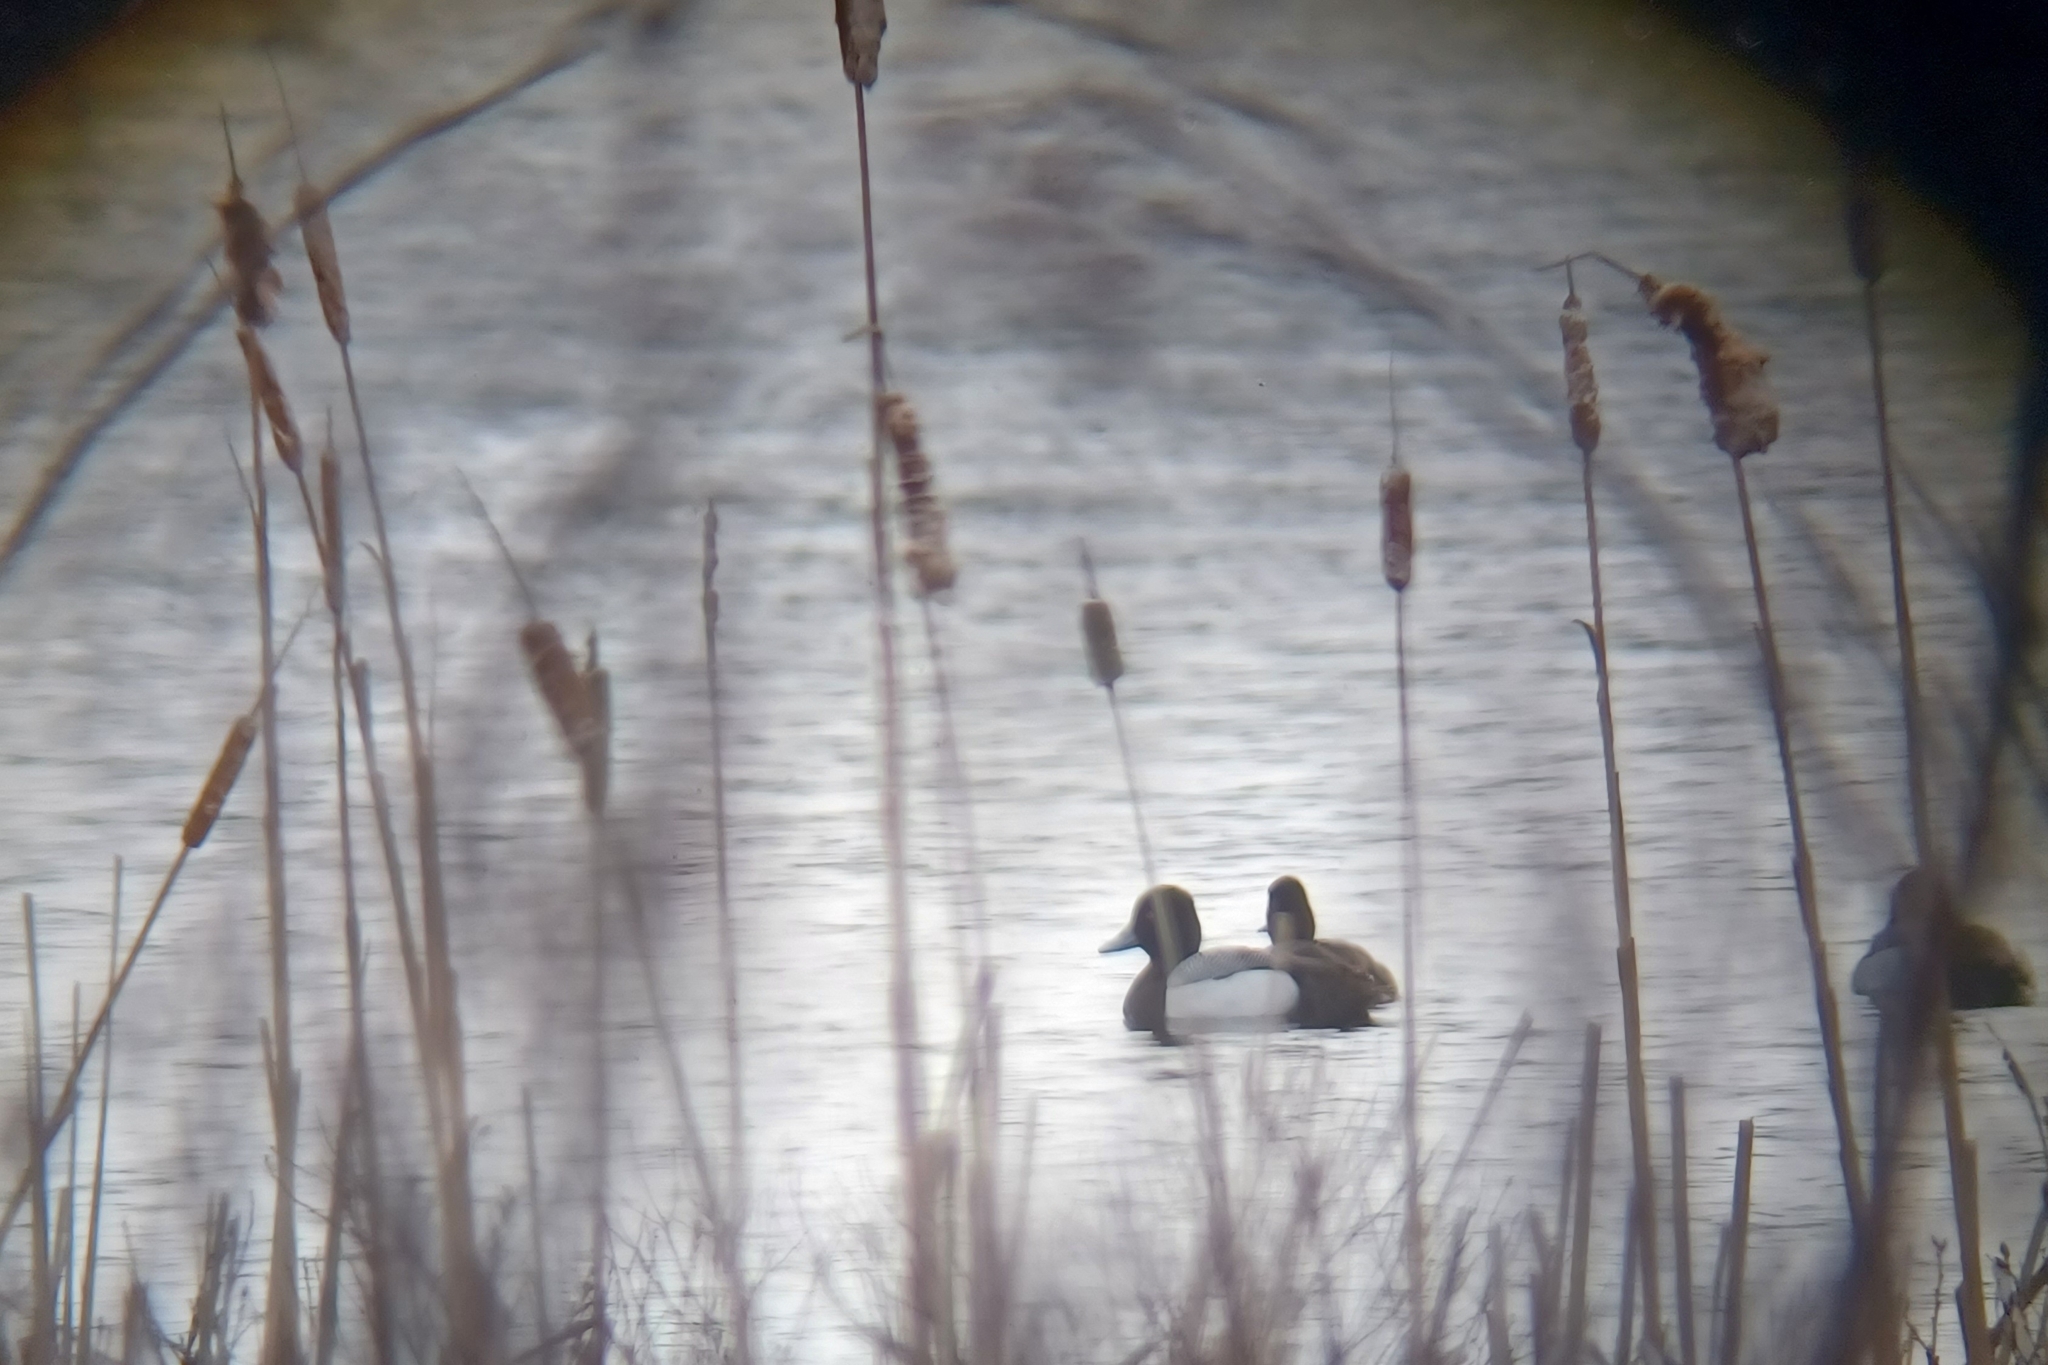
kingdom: Animalia
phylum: Chordata
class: Aves
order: Anseriformes
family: Anatidae
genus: Aythya
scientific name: Aythya affinis
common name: Lesser scaup
